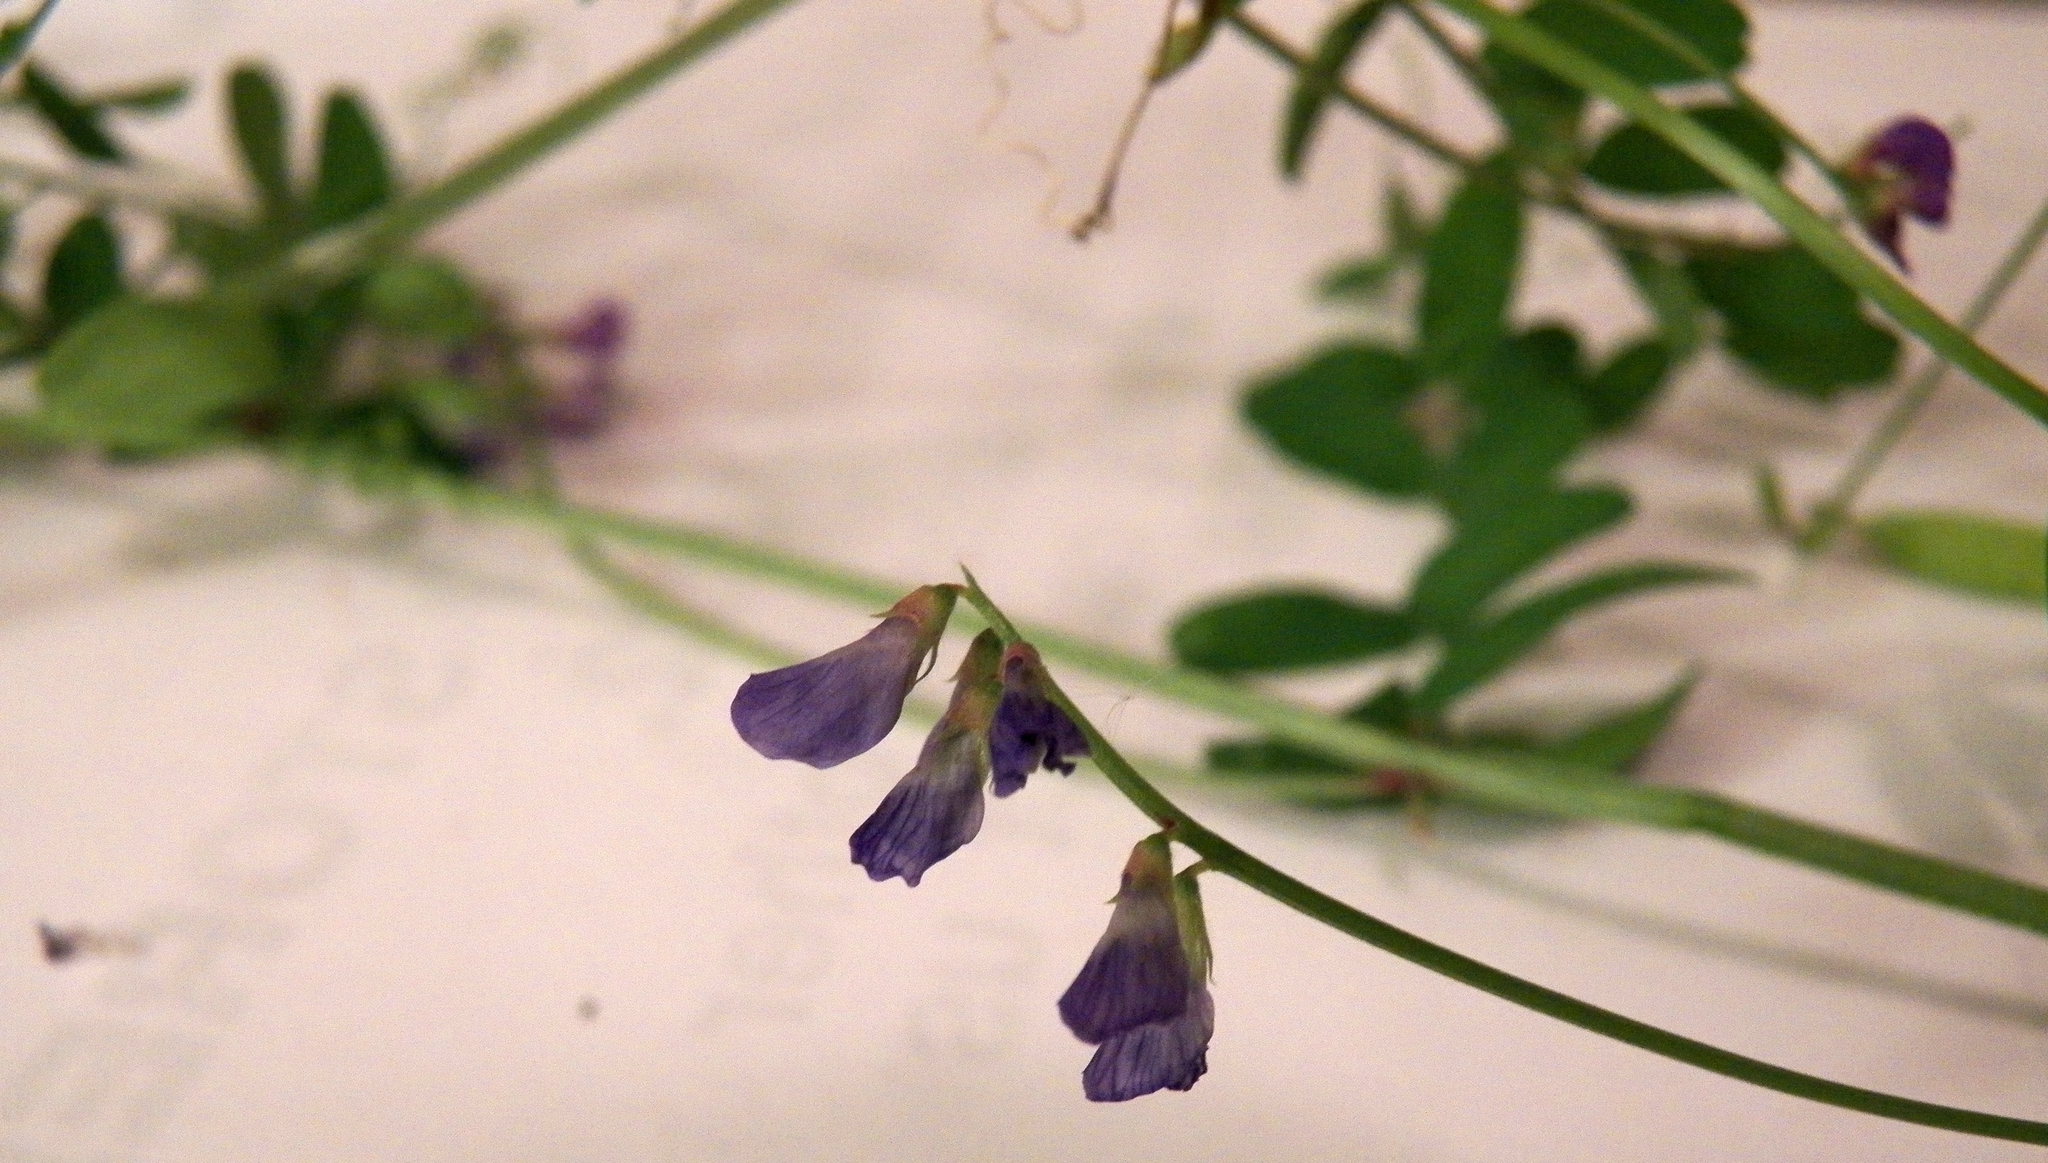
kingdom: Plantae
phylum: Tracheophyta
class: Magnoliopsida
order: Fabales
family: Fabaceae
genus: Vicia
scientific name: Vicia ludoviciana
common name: Louisiana vetch
